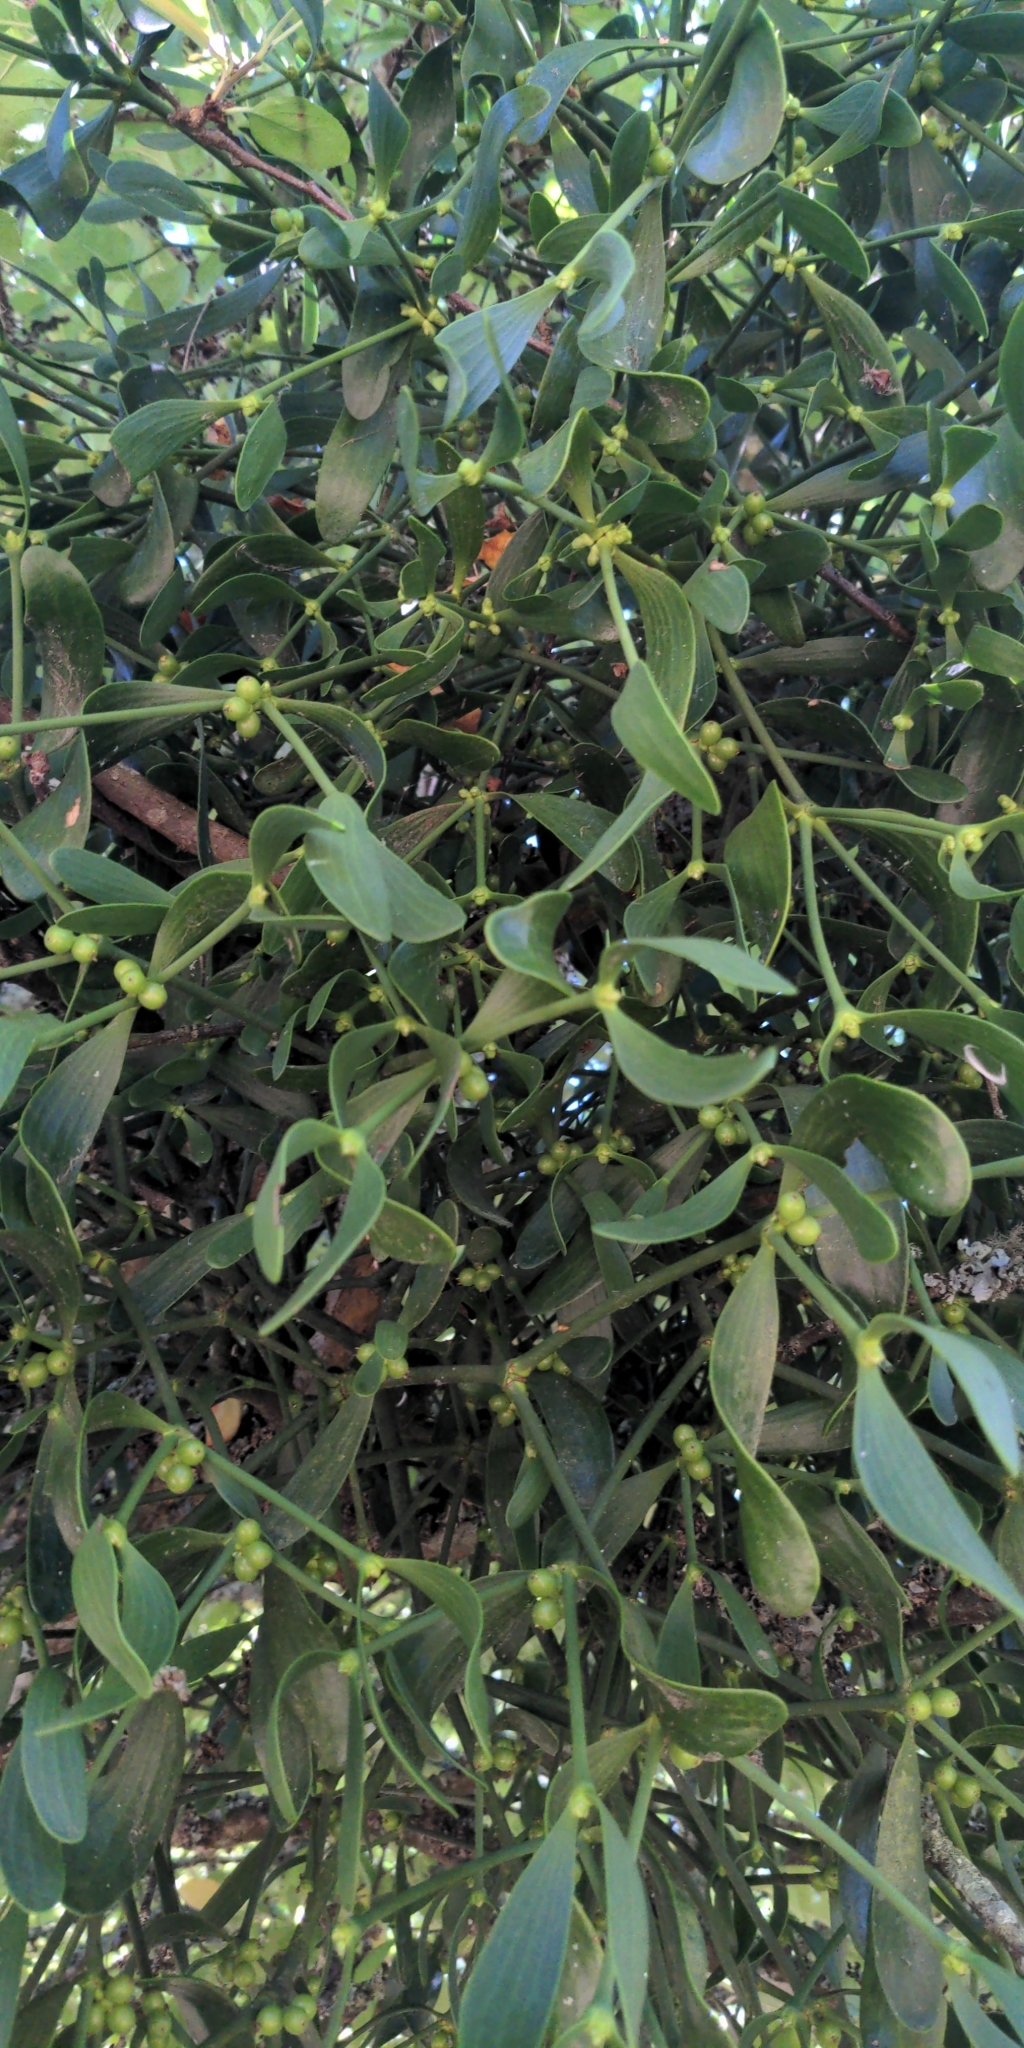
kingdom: Plantae
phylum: Tracheophyta
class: Magnoliopsida
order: Santalales
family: Viscaceae
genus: Viscum
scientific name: Viscum album
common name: Mistletoe
